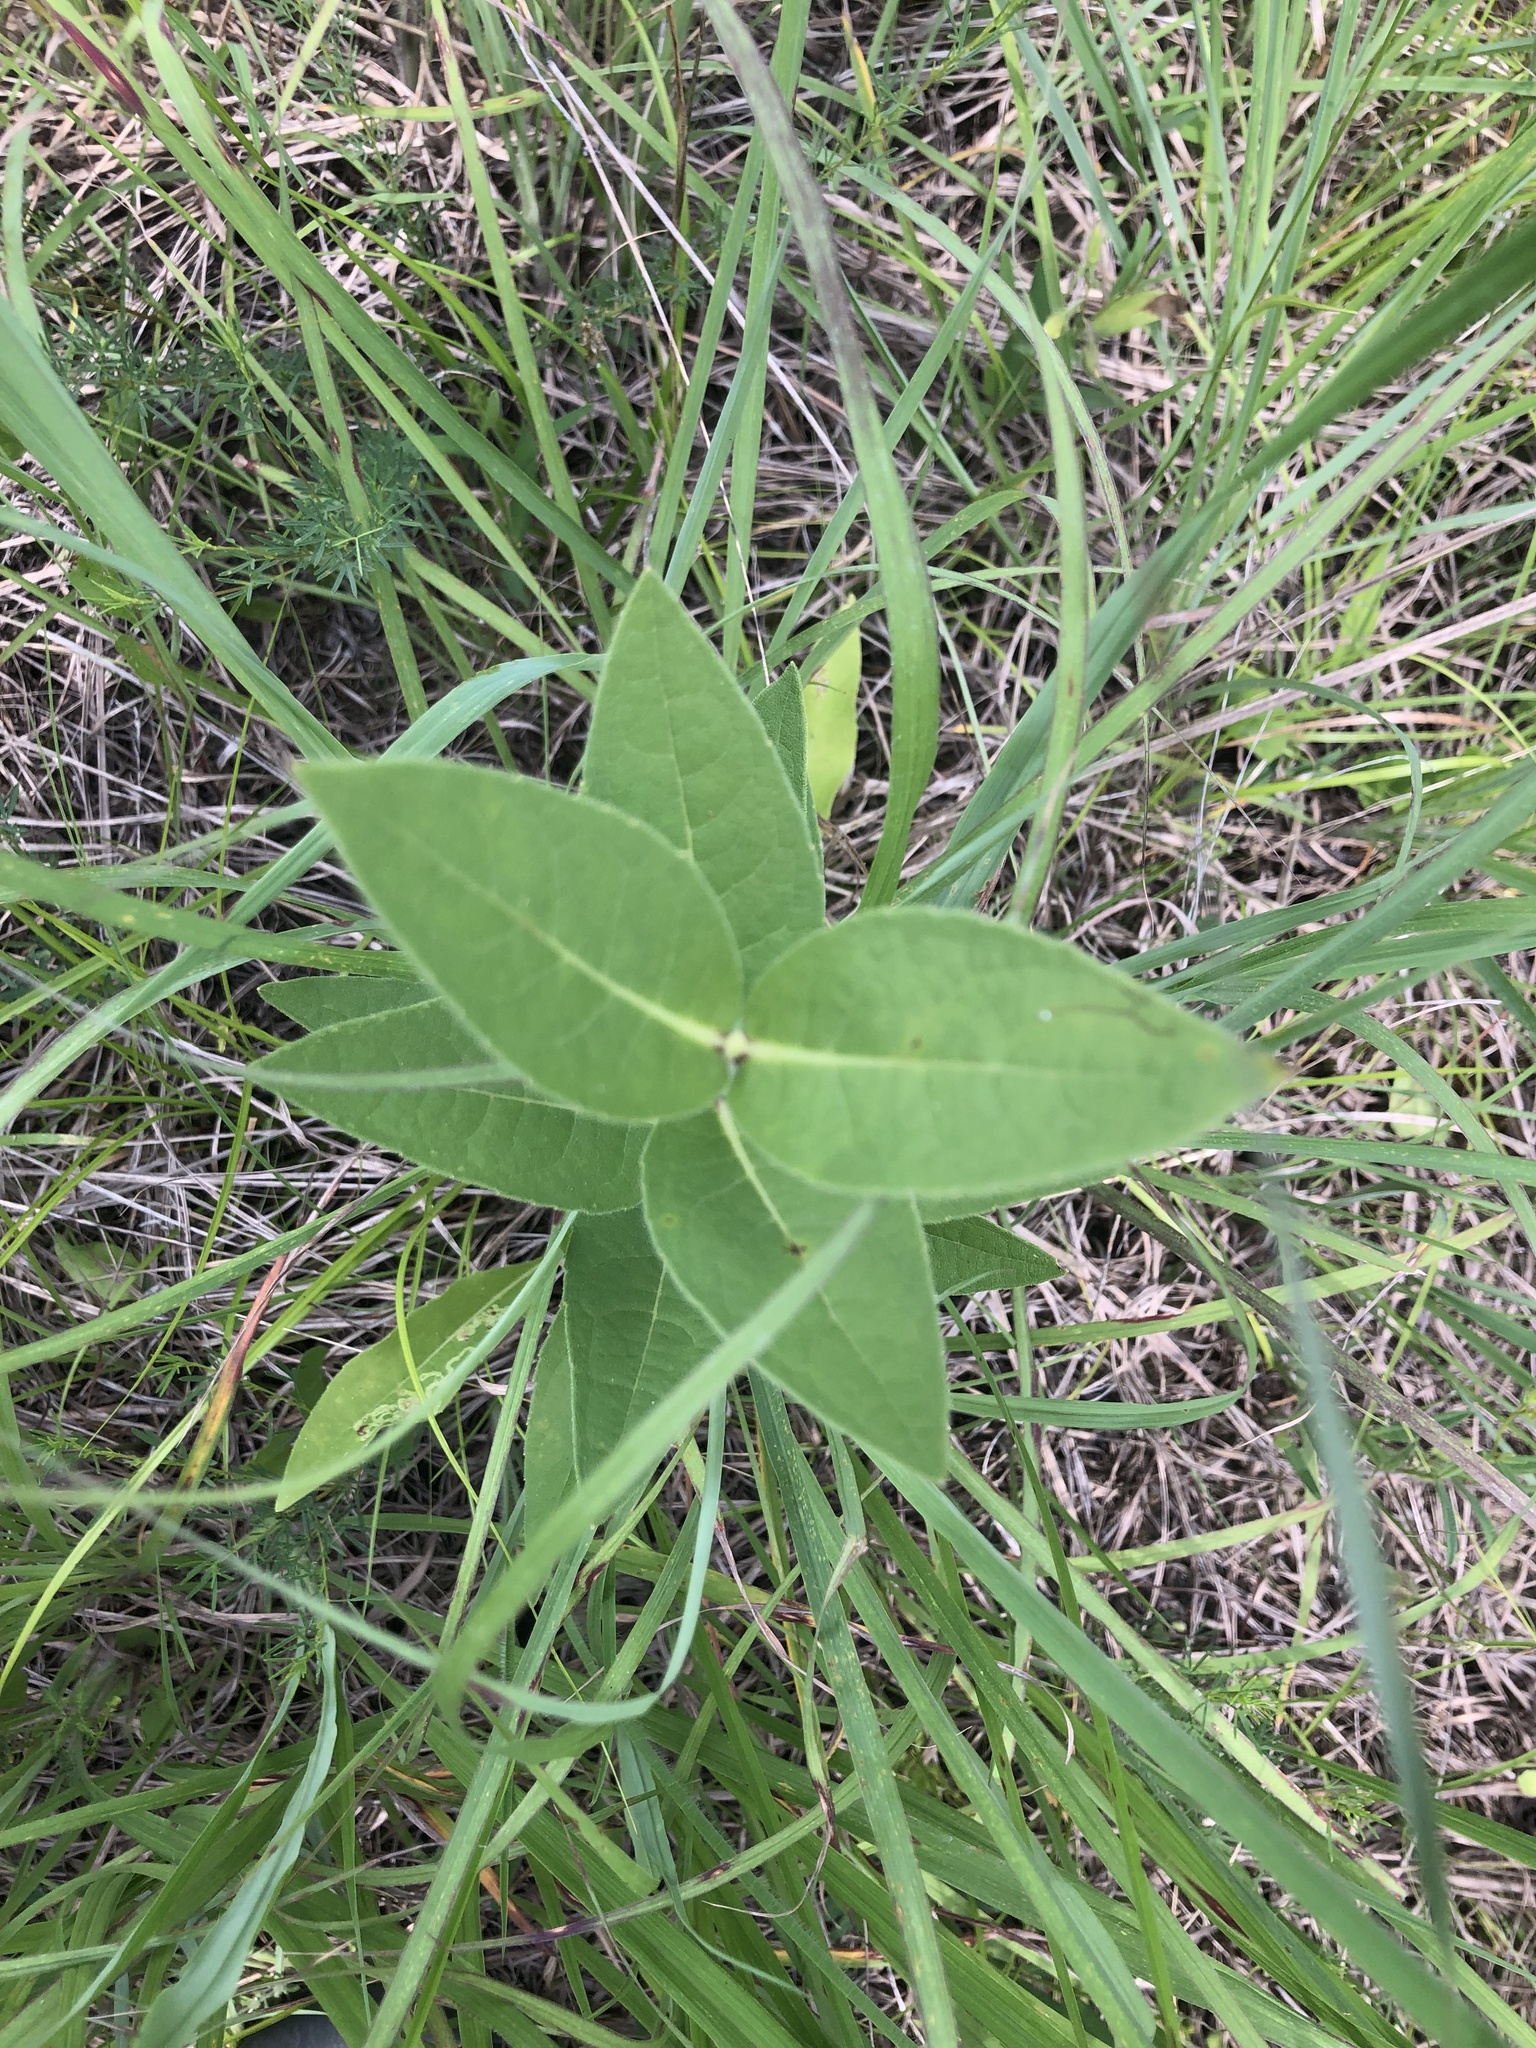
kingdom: Plantae
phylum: Tracheophyta
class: Magnoliopsida
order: Asterales
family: Asteraceae
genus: Silphium
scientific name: Silphium integrifolium
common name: Whole-leaf rosinweed
